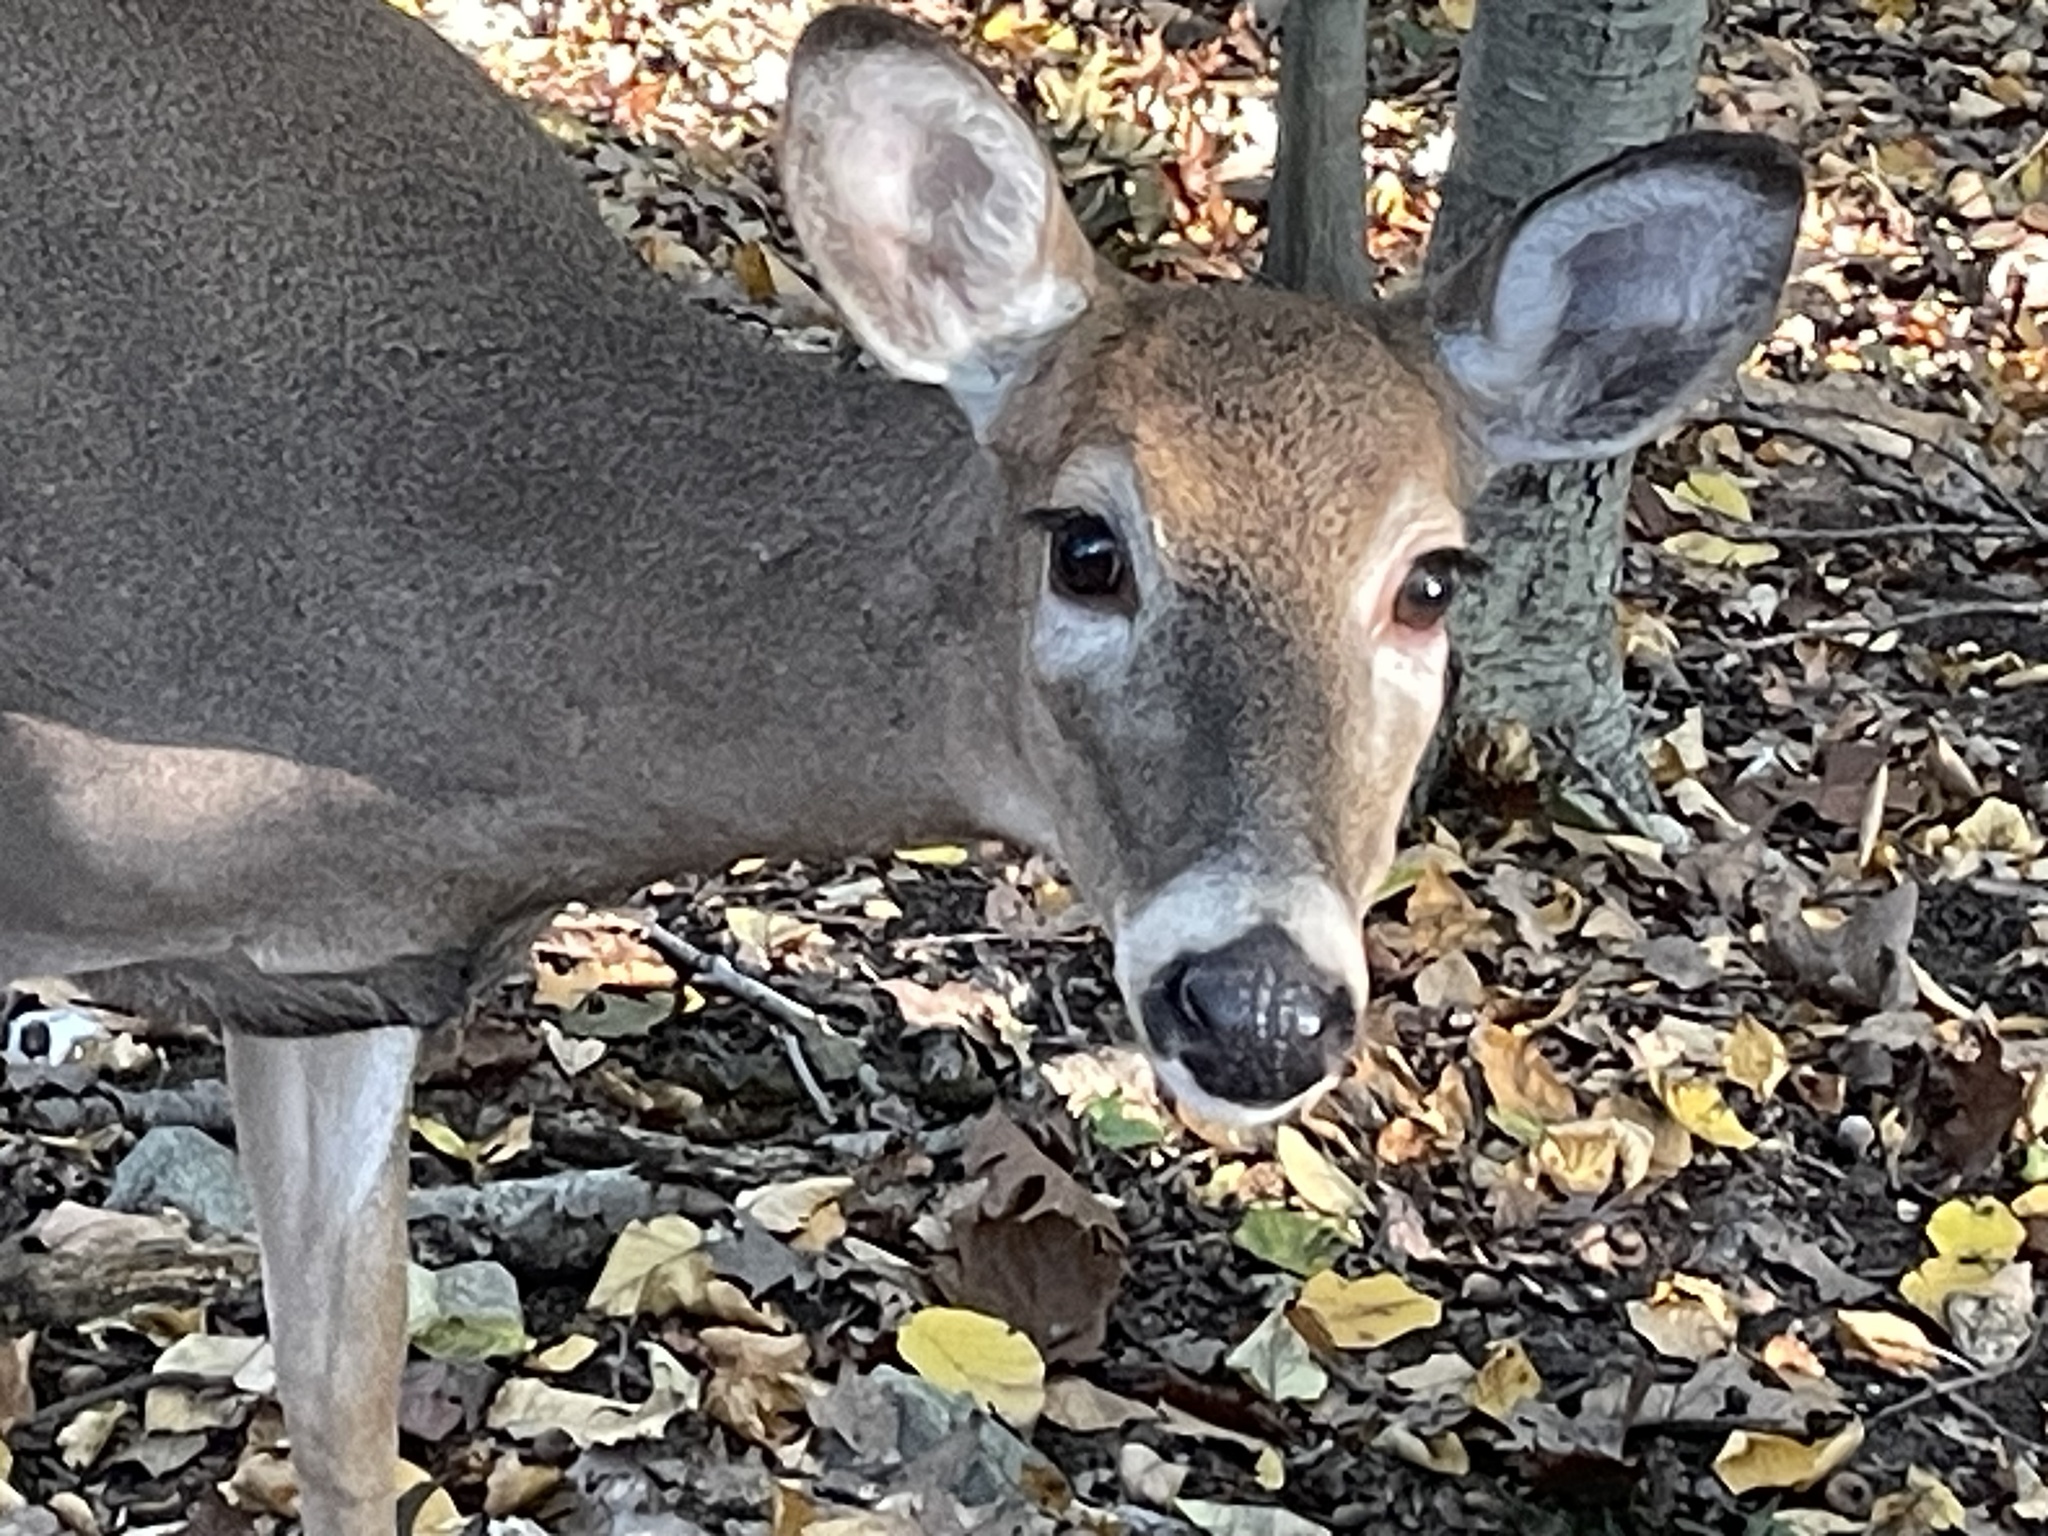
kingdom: Animalia
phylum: Chordata
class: Mammalia
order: Artiodactyla
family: Cervidae
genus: Odocoileus
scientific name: Odocoileus virginianus
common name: White-tailed deer
